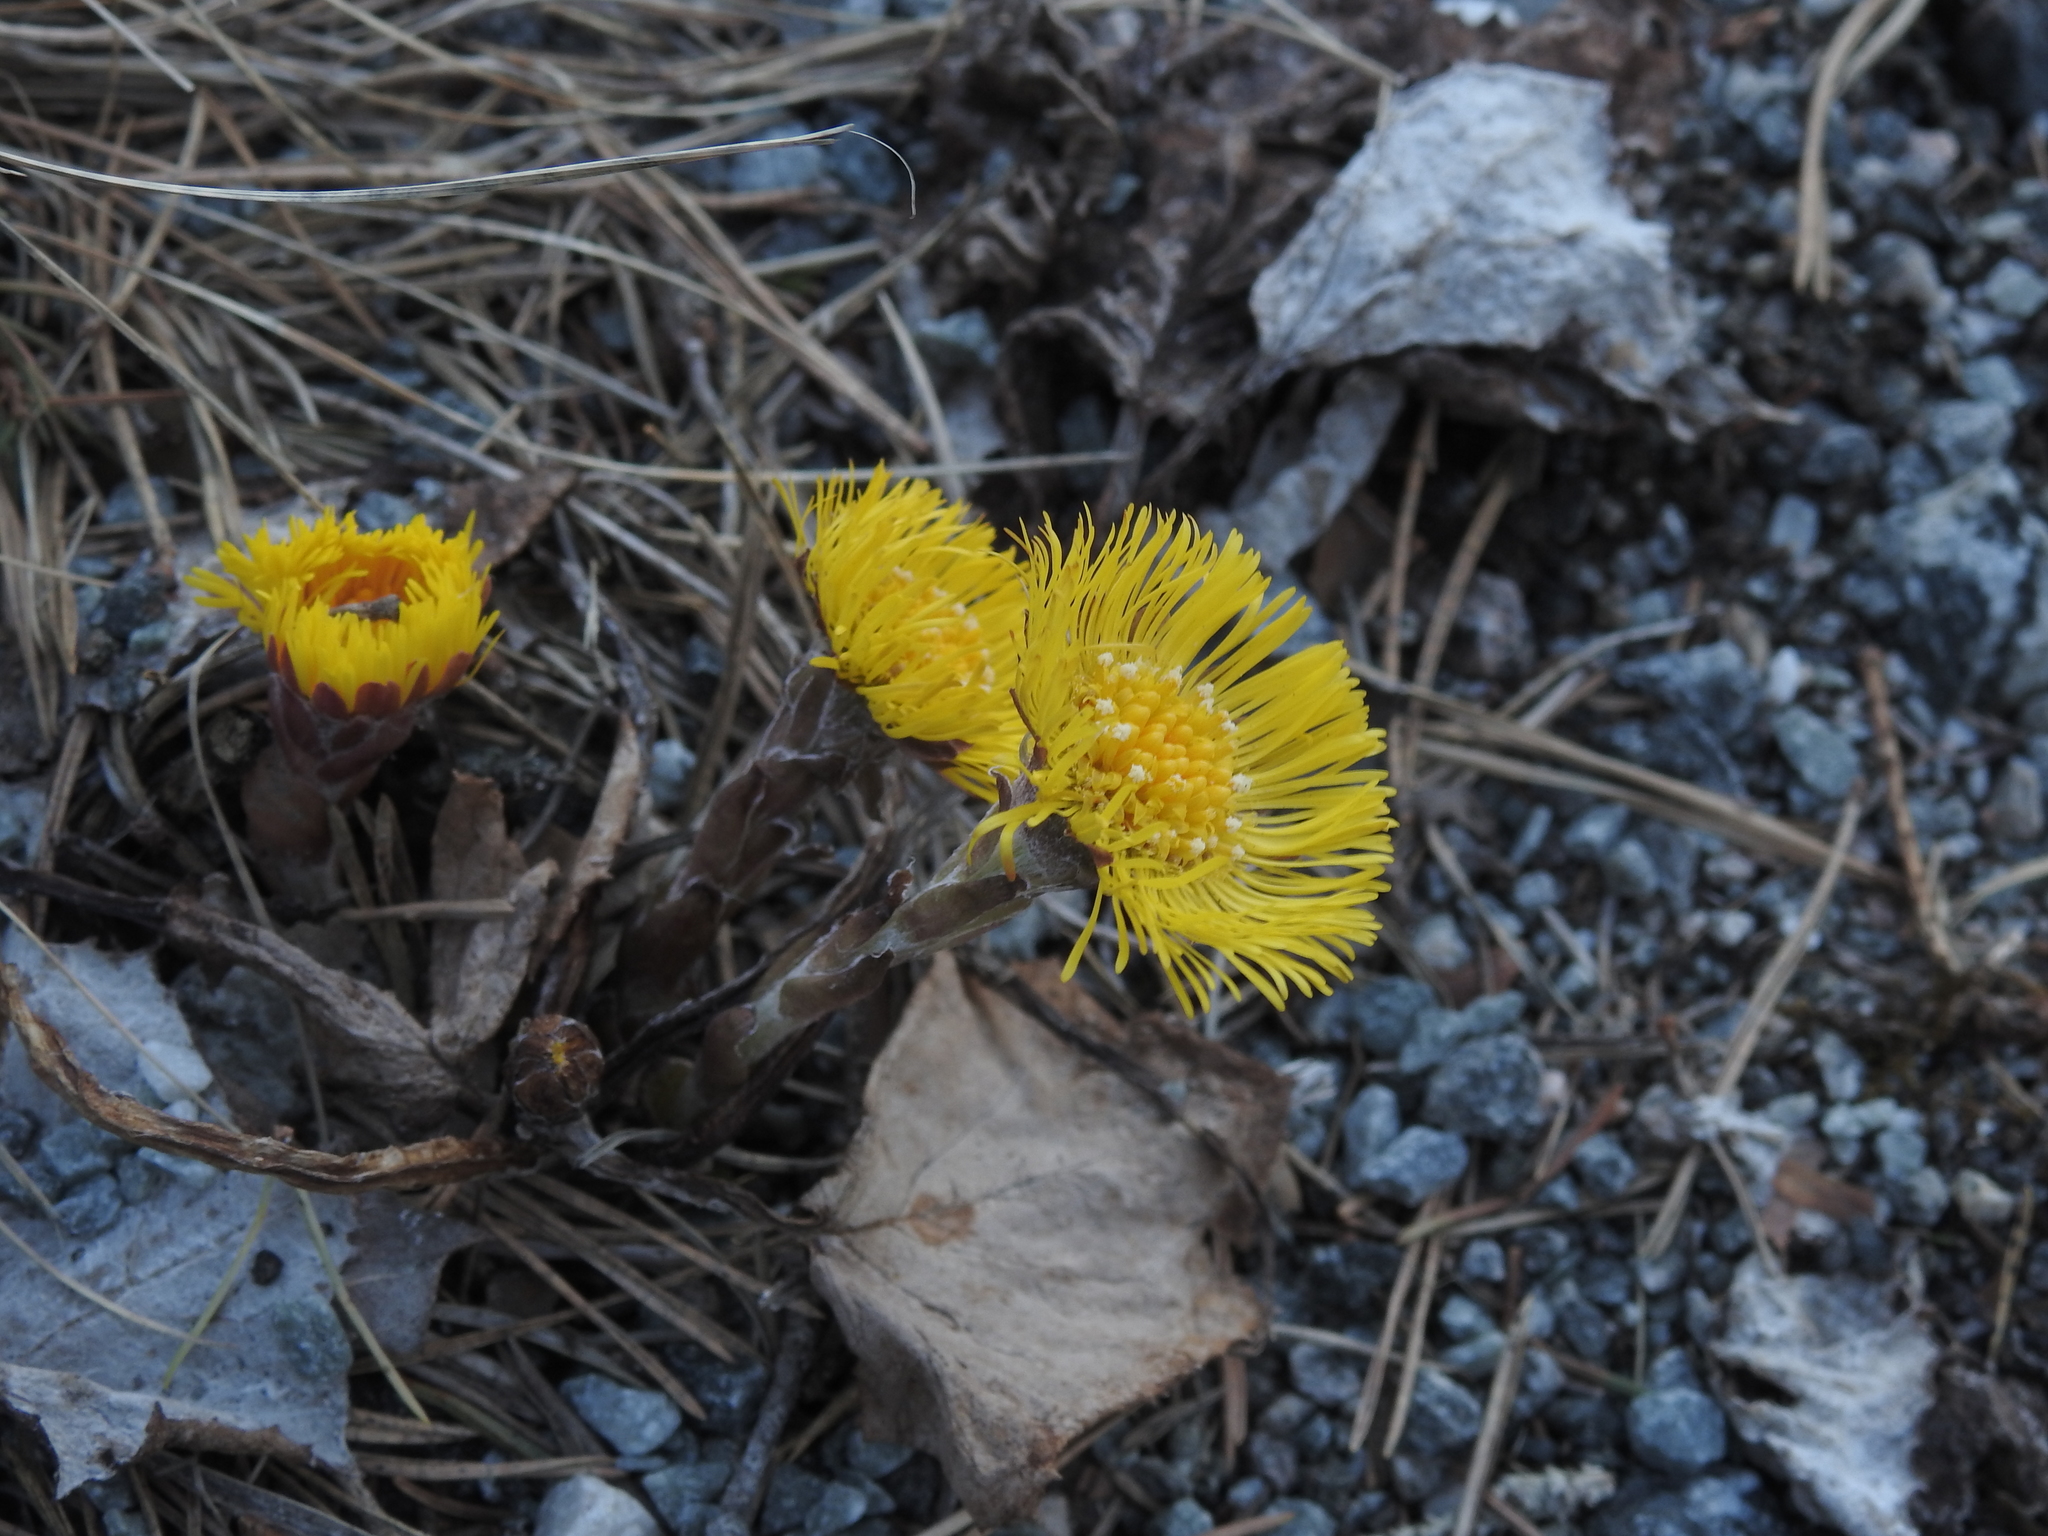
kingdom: Plantae
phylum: Tracheophyta
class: Magnoliopsida
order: Asterales
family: Asteraceae
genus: Tussilago
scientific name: Tussilago farfara
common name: Coltsfoot
